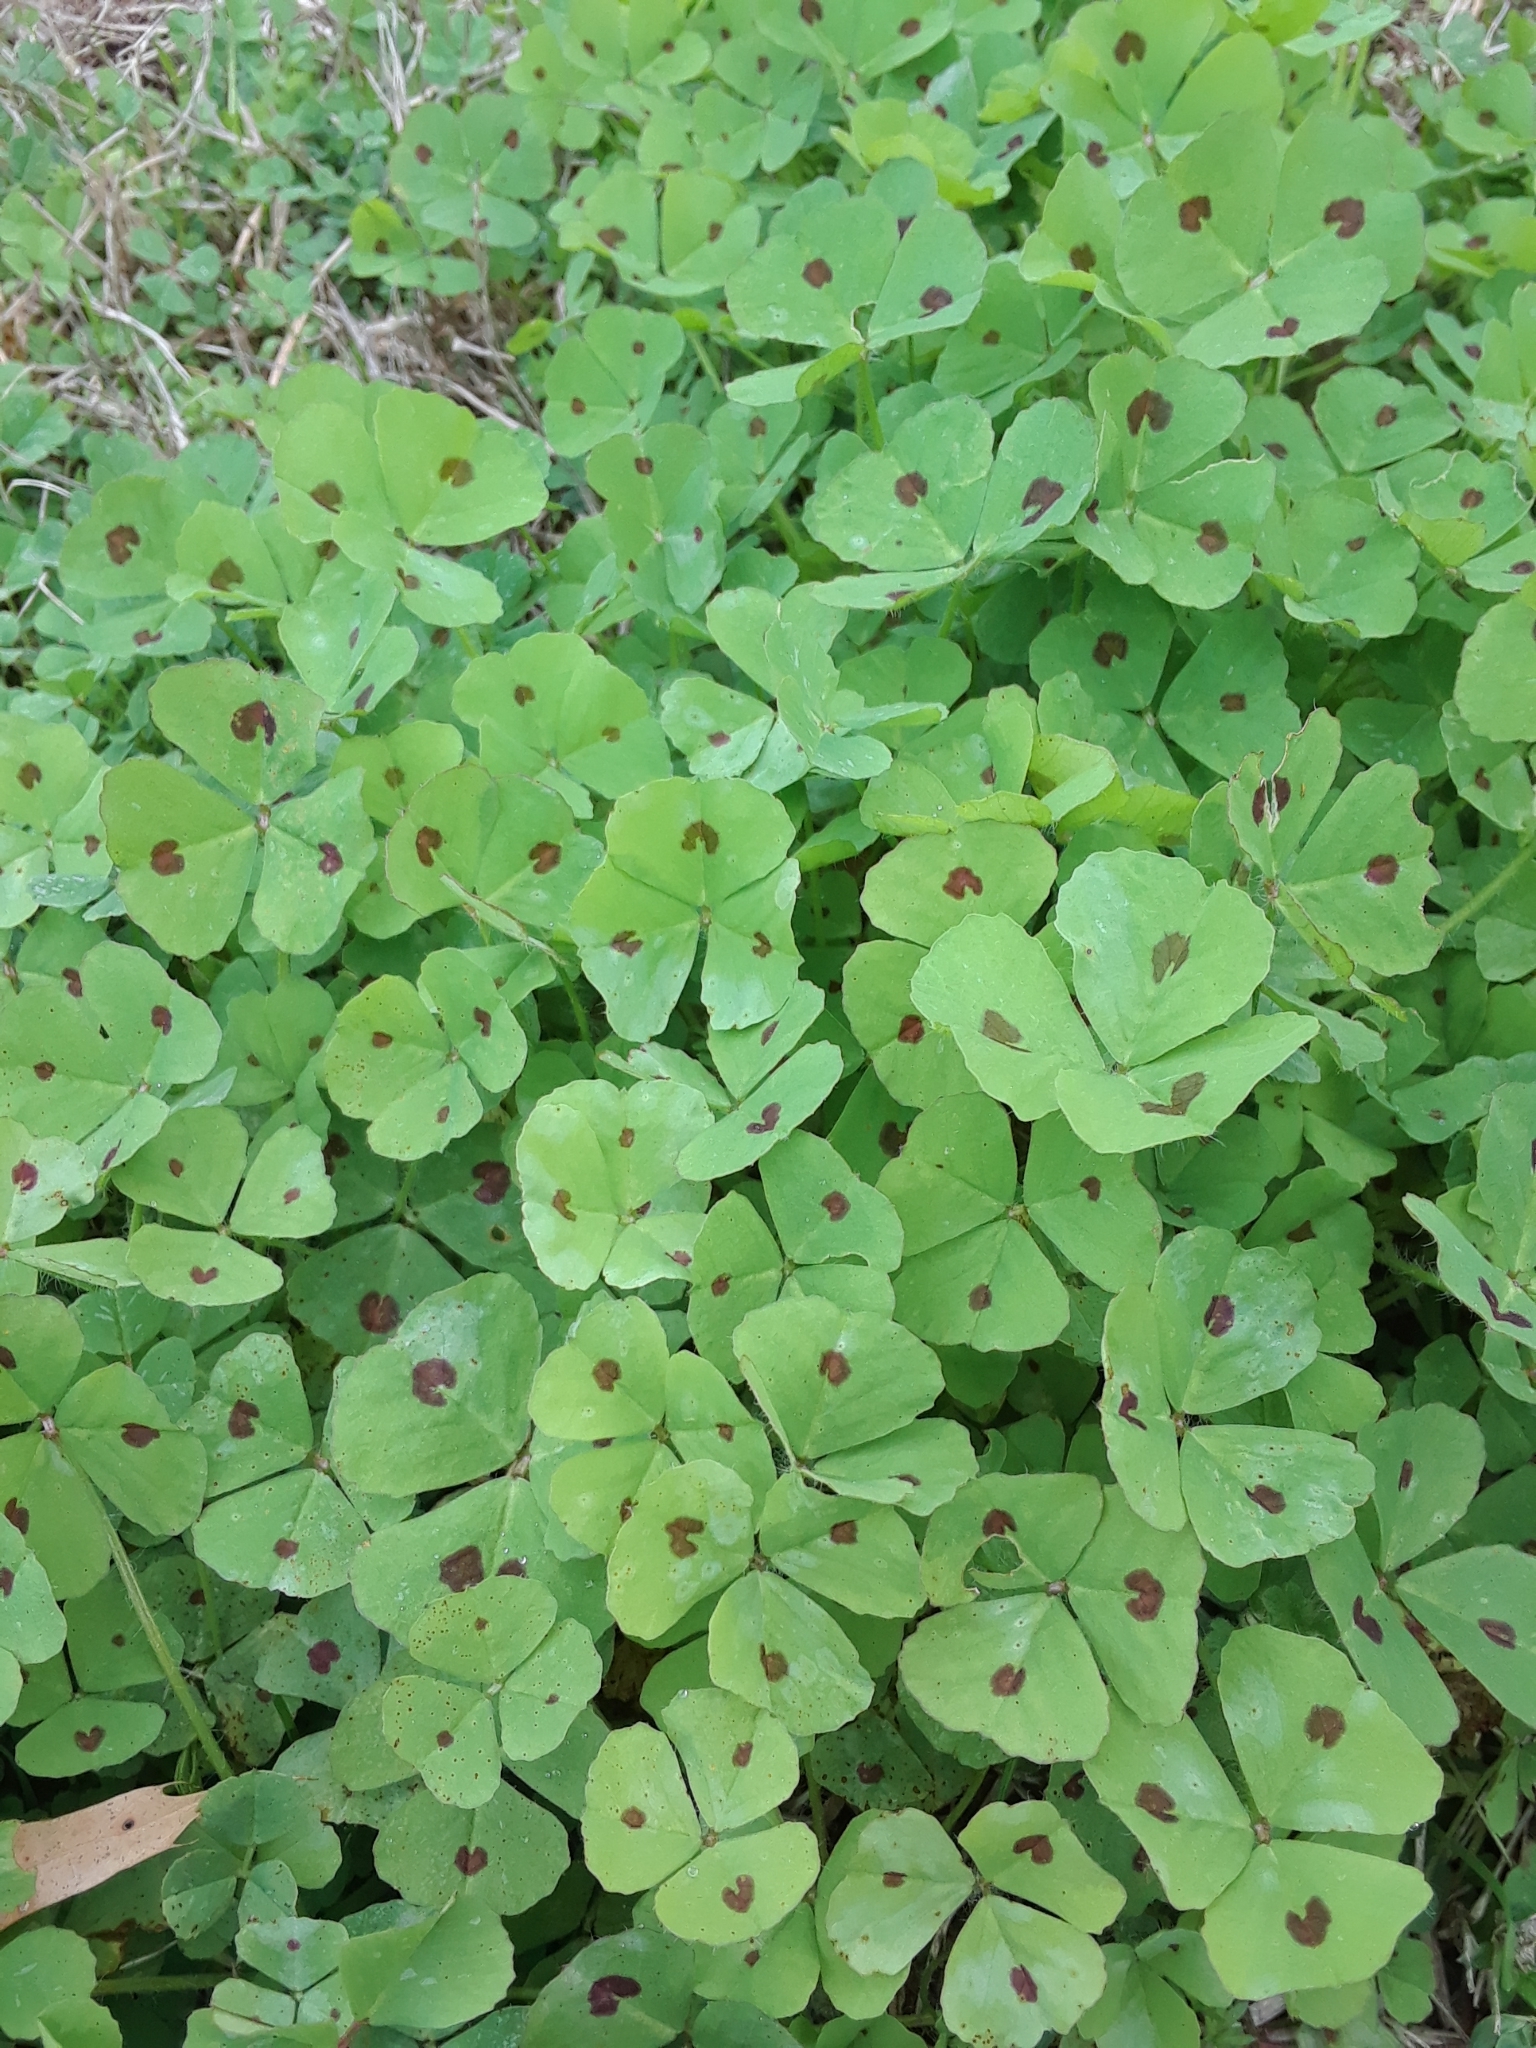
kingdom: Plantae
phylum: Tracheophyta
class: Magnoliopsida
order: Fabales
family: Fabaceae
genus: Medicago
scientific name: Medicago arabica
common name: Spotted medick
